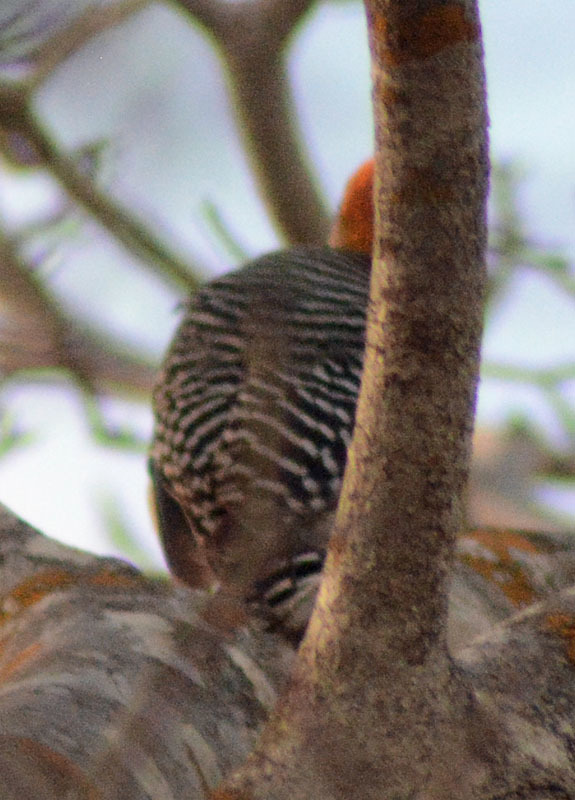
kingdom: Animalia
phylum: Chordata
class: Aves
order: Piciformes
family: Picidae
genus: Melanerpes
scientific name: Melanerpes chrysogenys
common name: Golden-cheeked woodpecker
